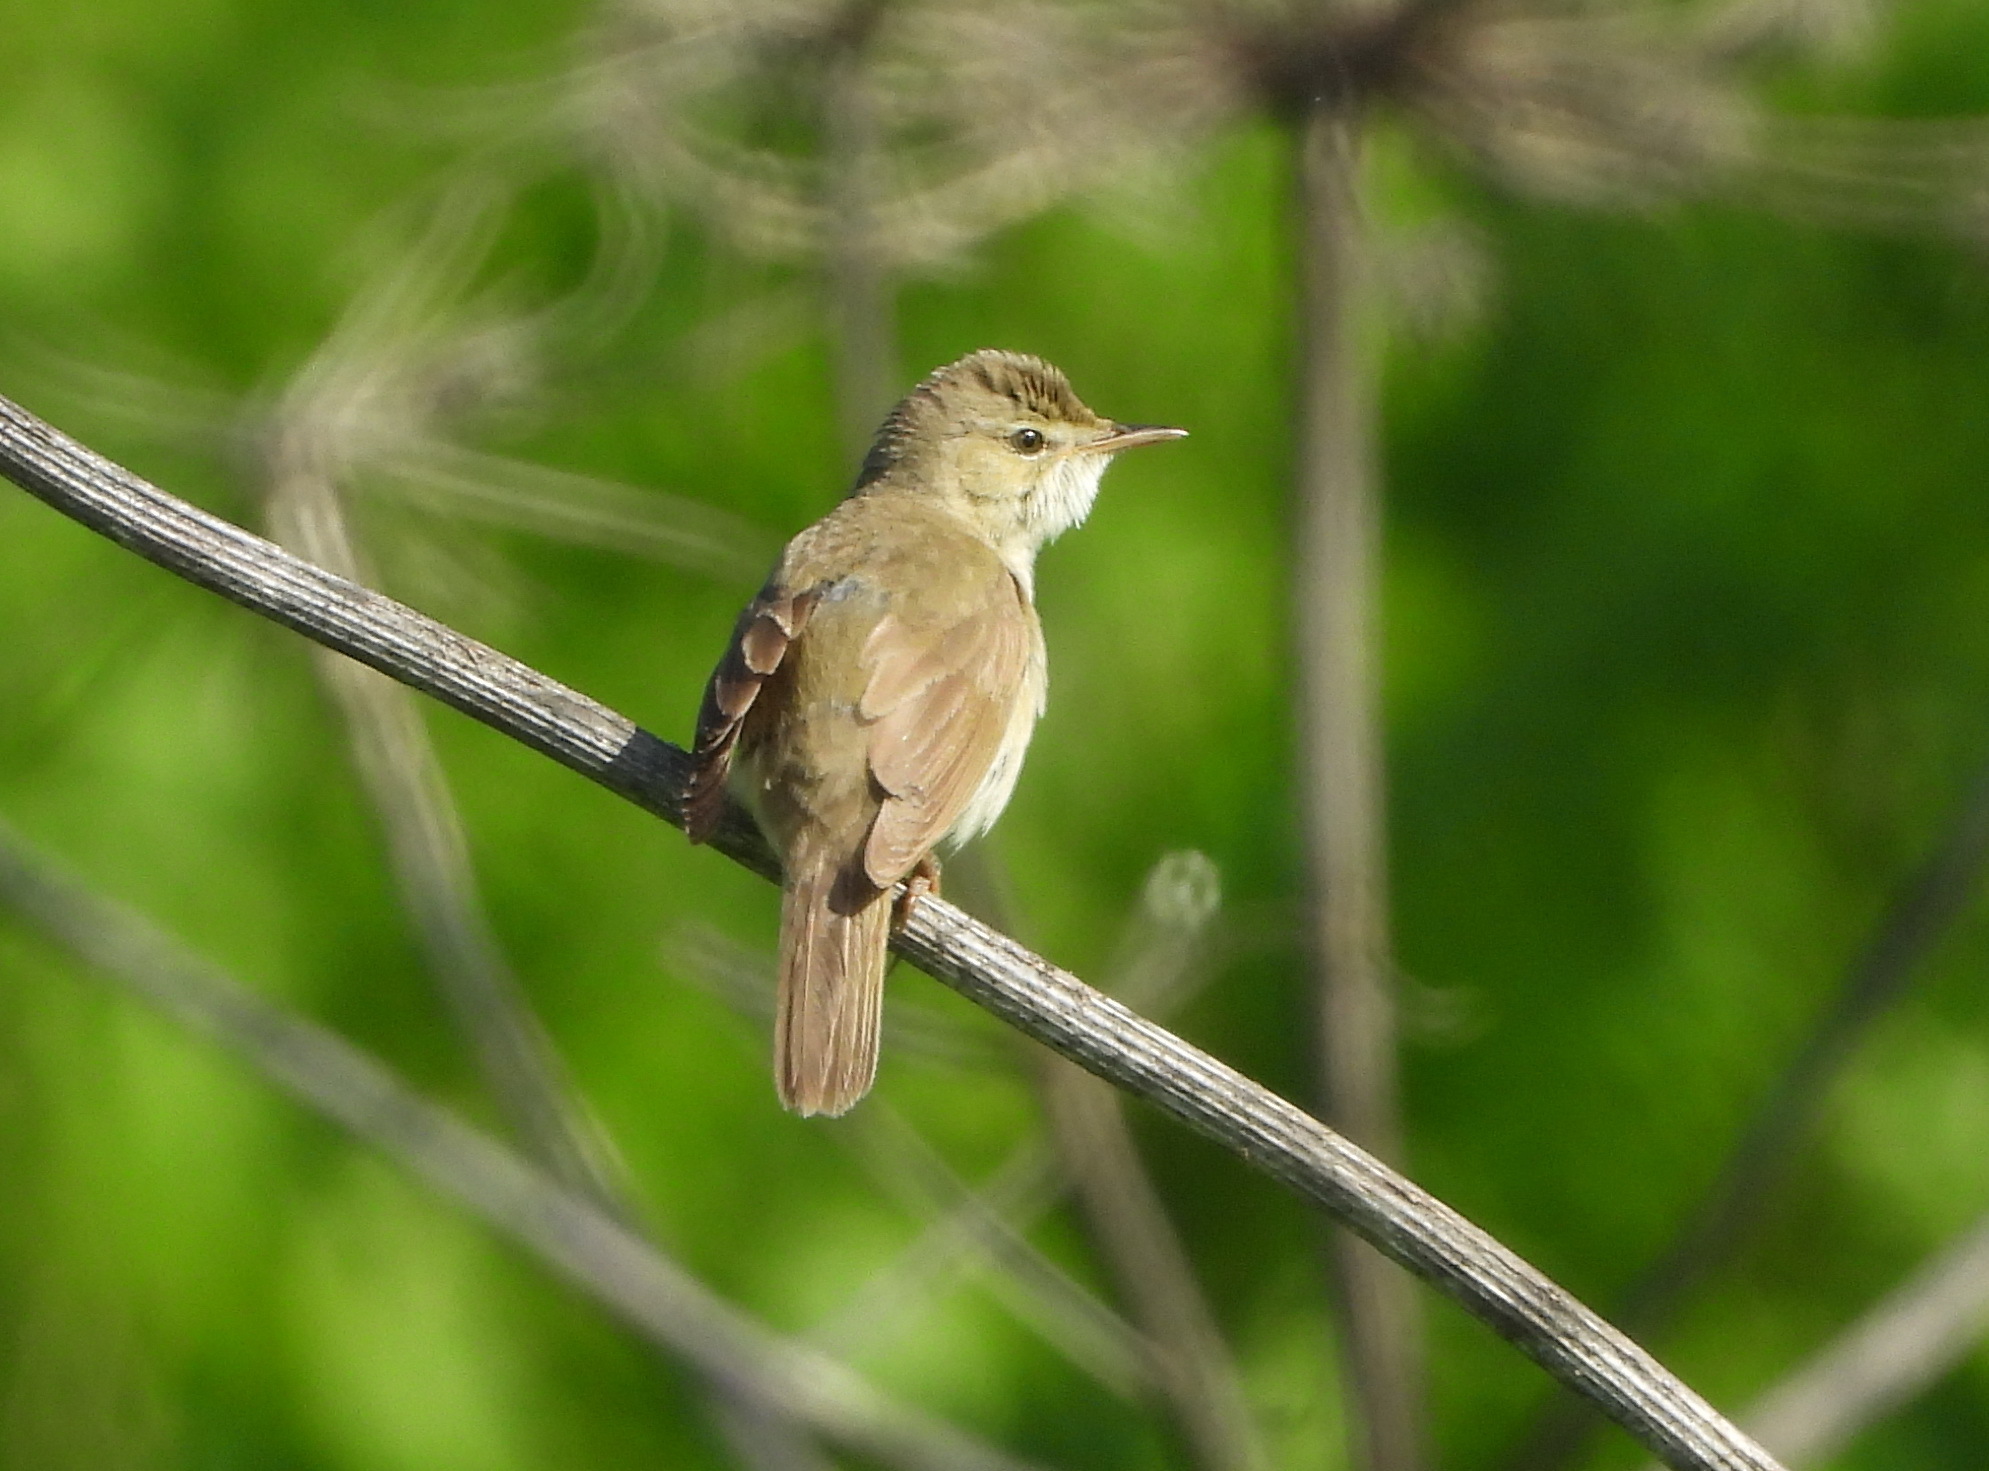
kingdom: Animalia
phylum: Chordata
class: Aves
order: Passeriformes
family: Acrocephalidae
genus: Acrocephalus
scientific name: Acrocephalus dumetorum
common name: Blyth's reed warbler
